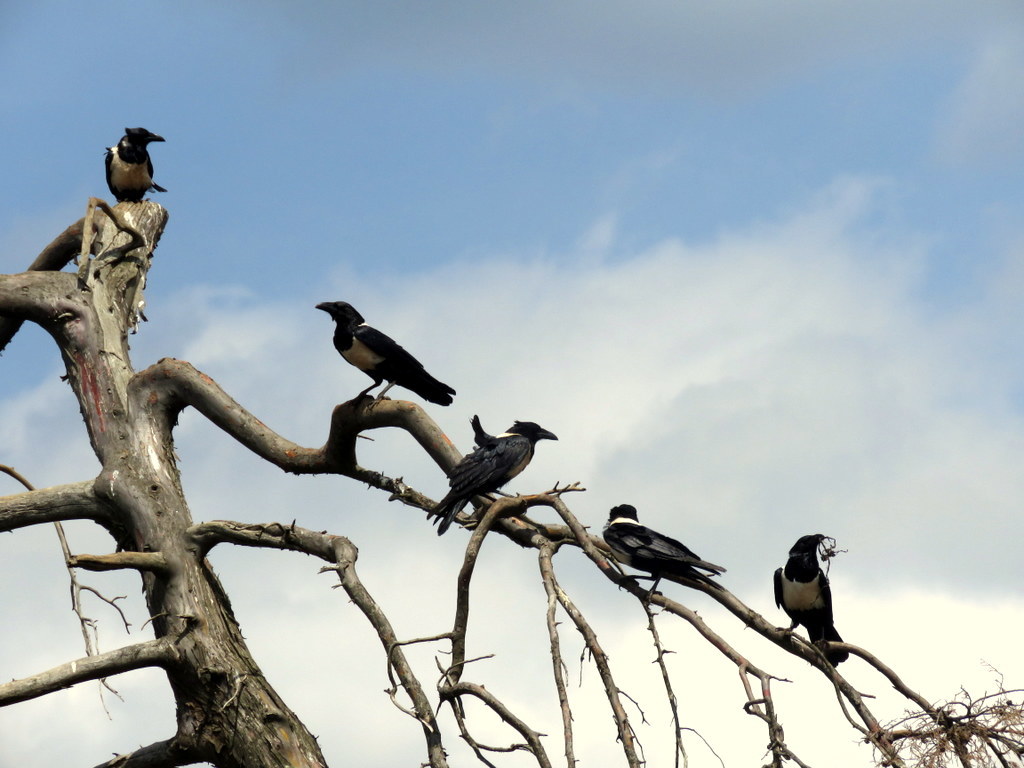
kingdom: Animalia
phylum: Chordata
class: Aves
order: Passeriformes
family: Corvidae
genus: Corvus
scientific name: Corvus albus
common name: Pied crow
